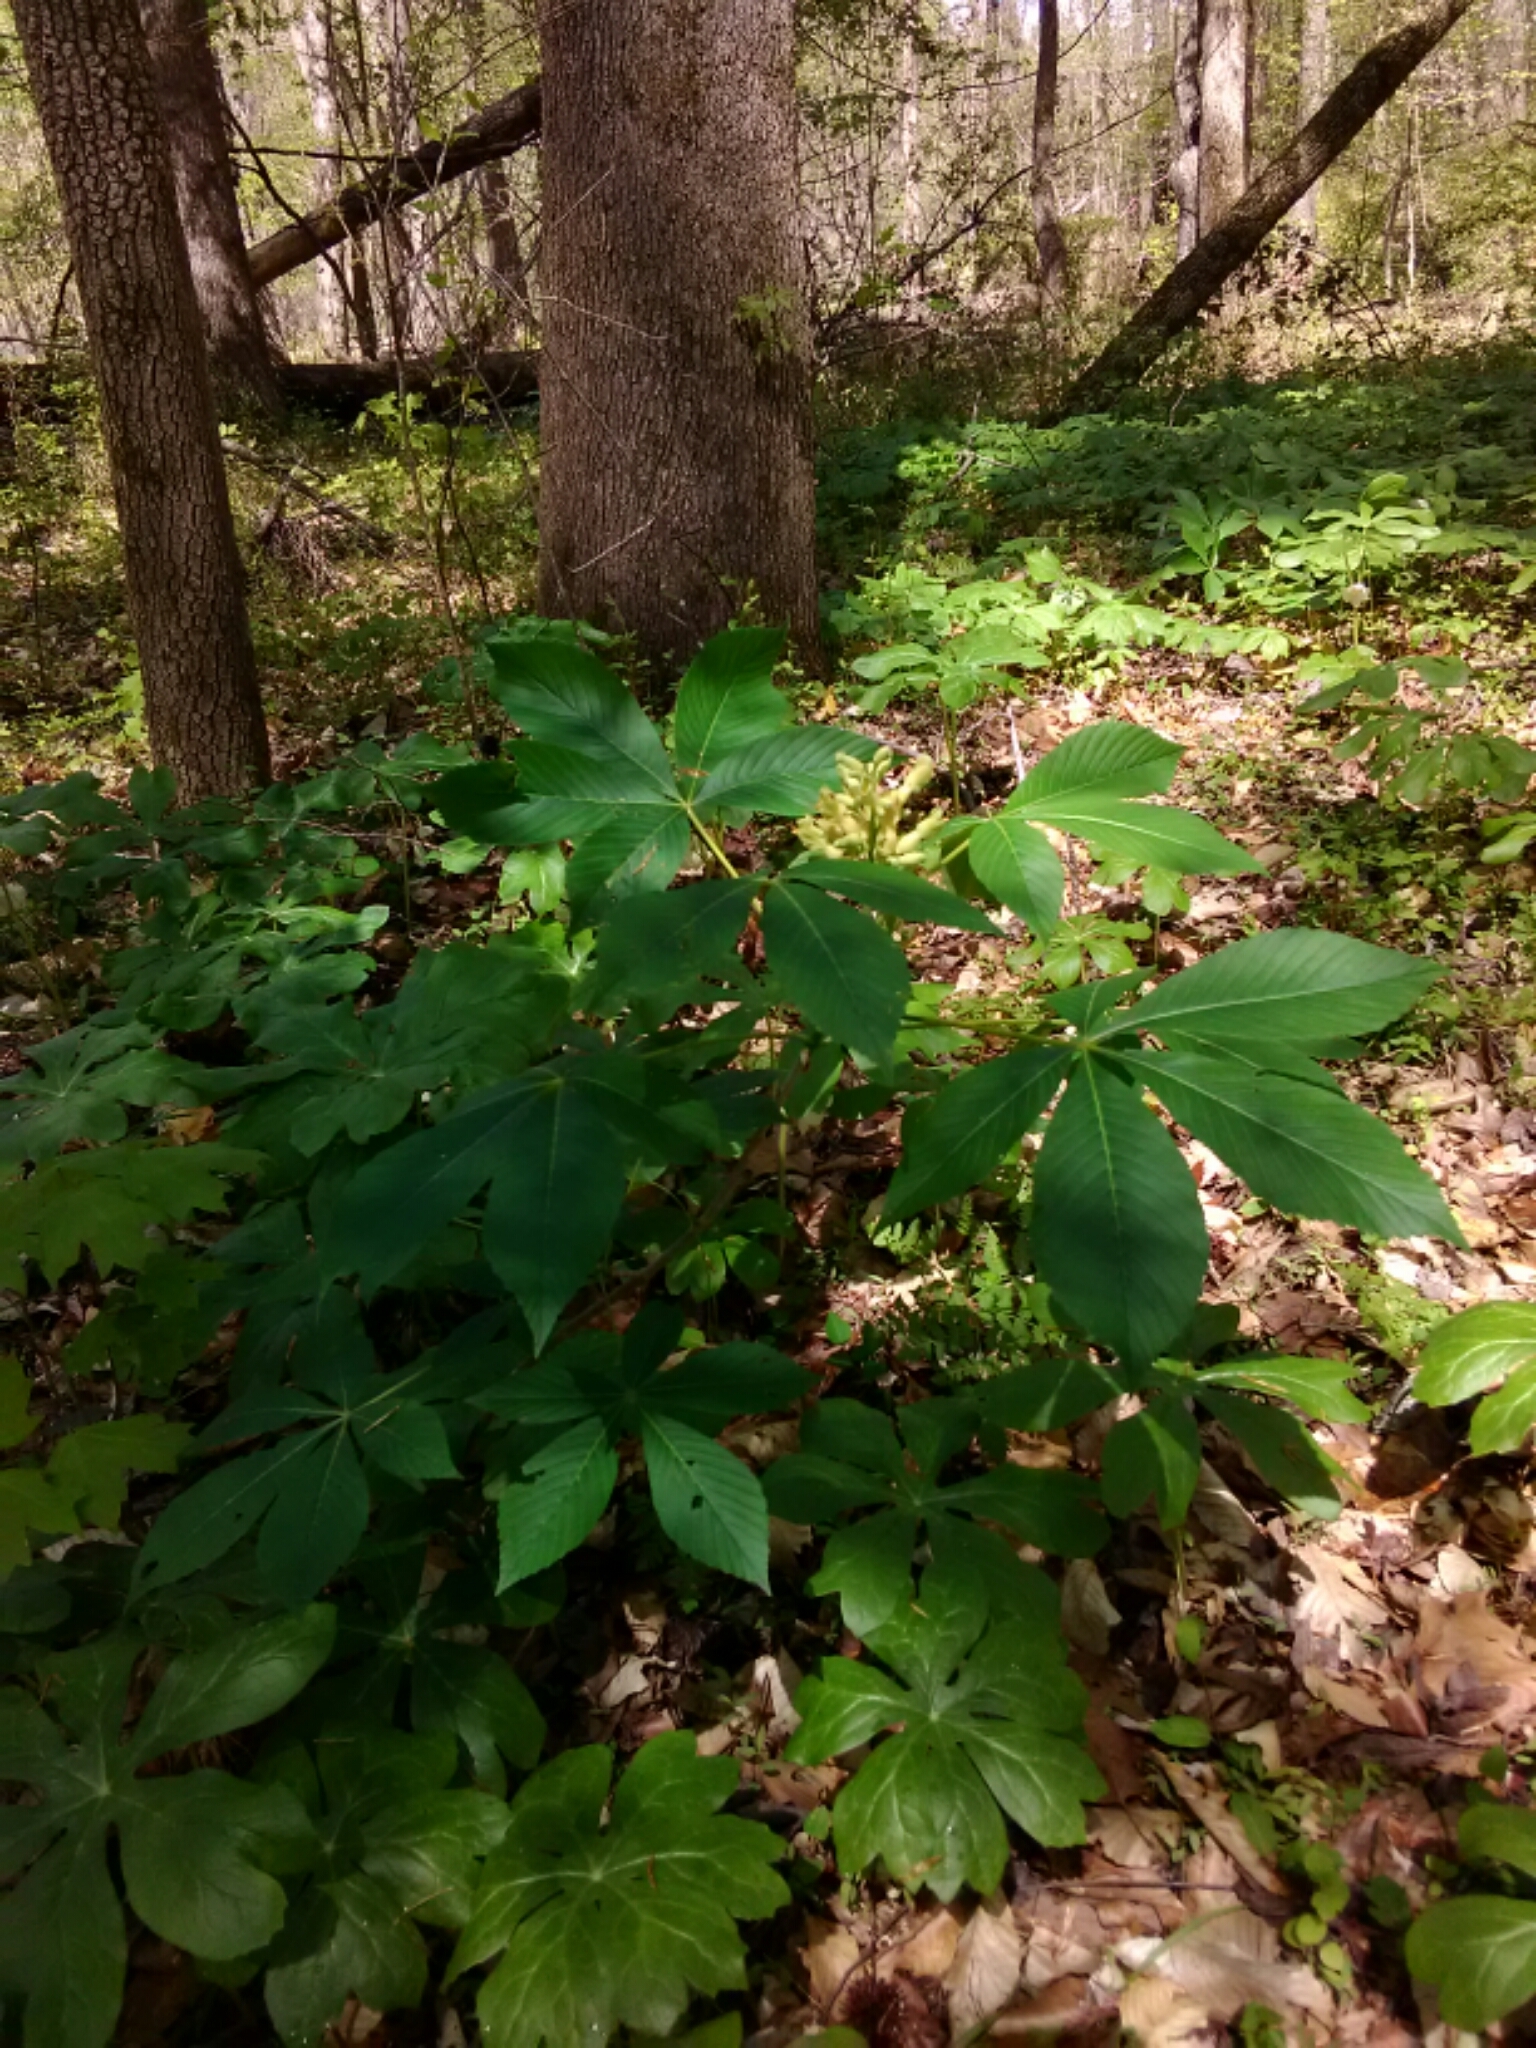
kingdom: Plantae
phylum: Tracheophyta
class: Magnoliopsida
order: Sapindales
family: Sapindaceae
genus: Aesculus
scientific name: Aesculus sylvatica
